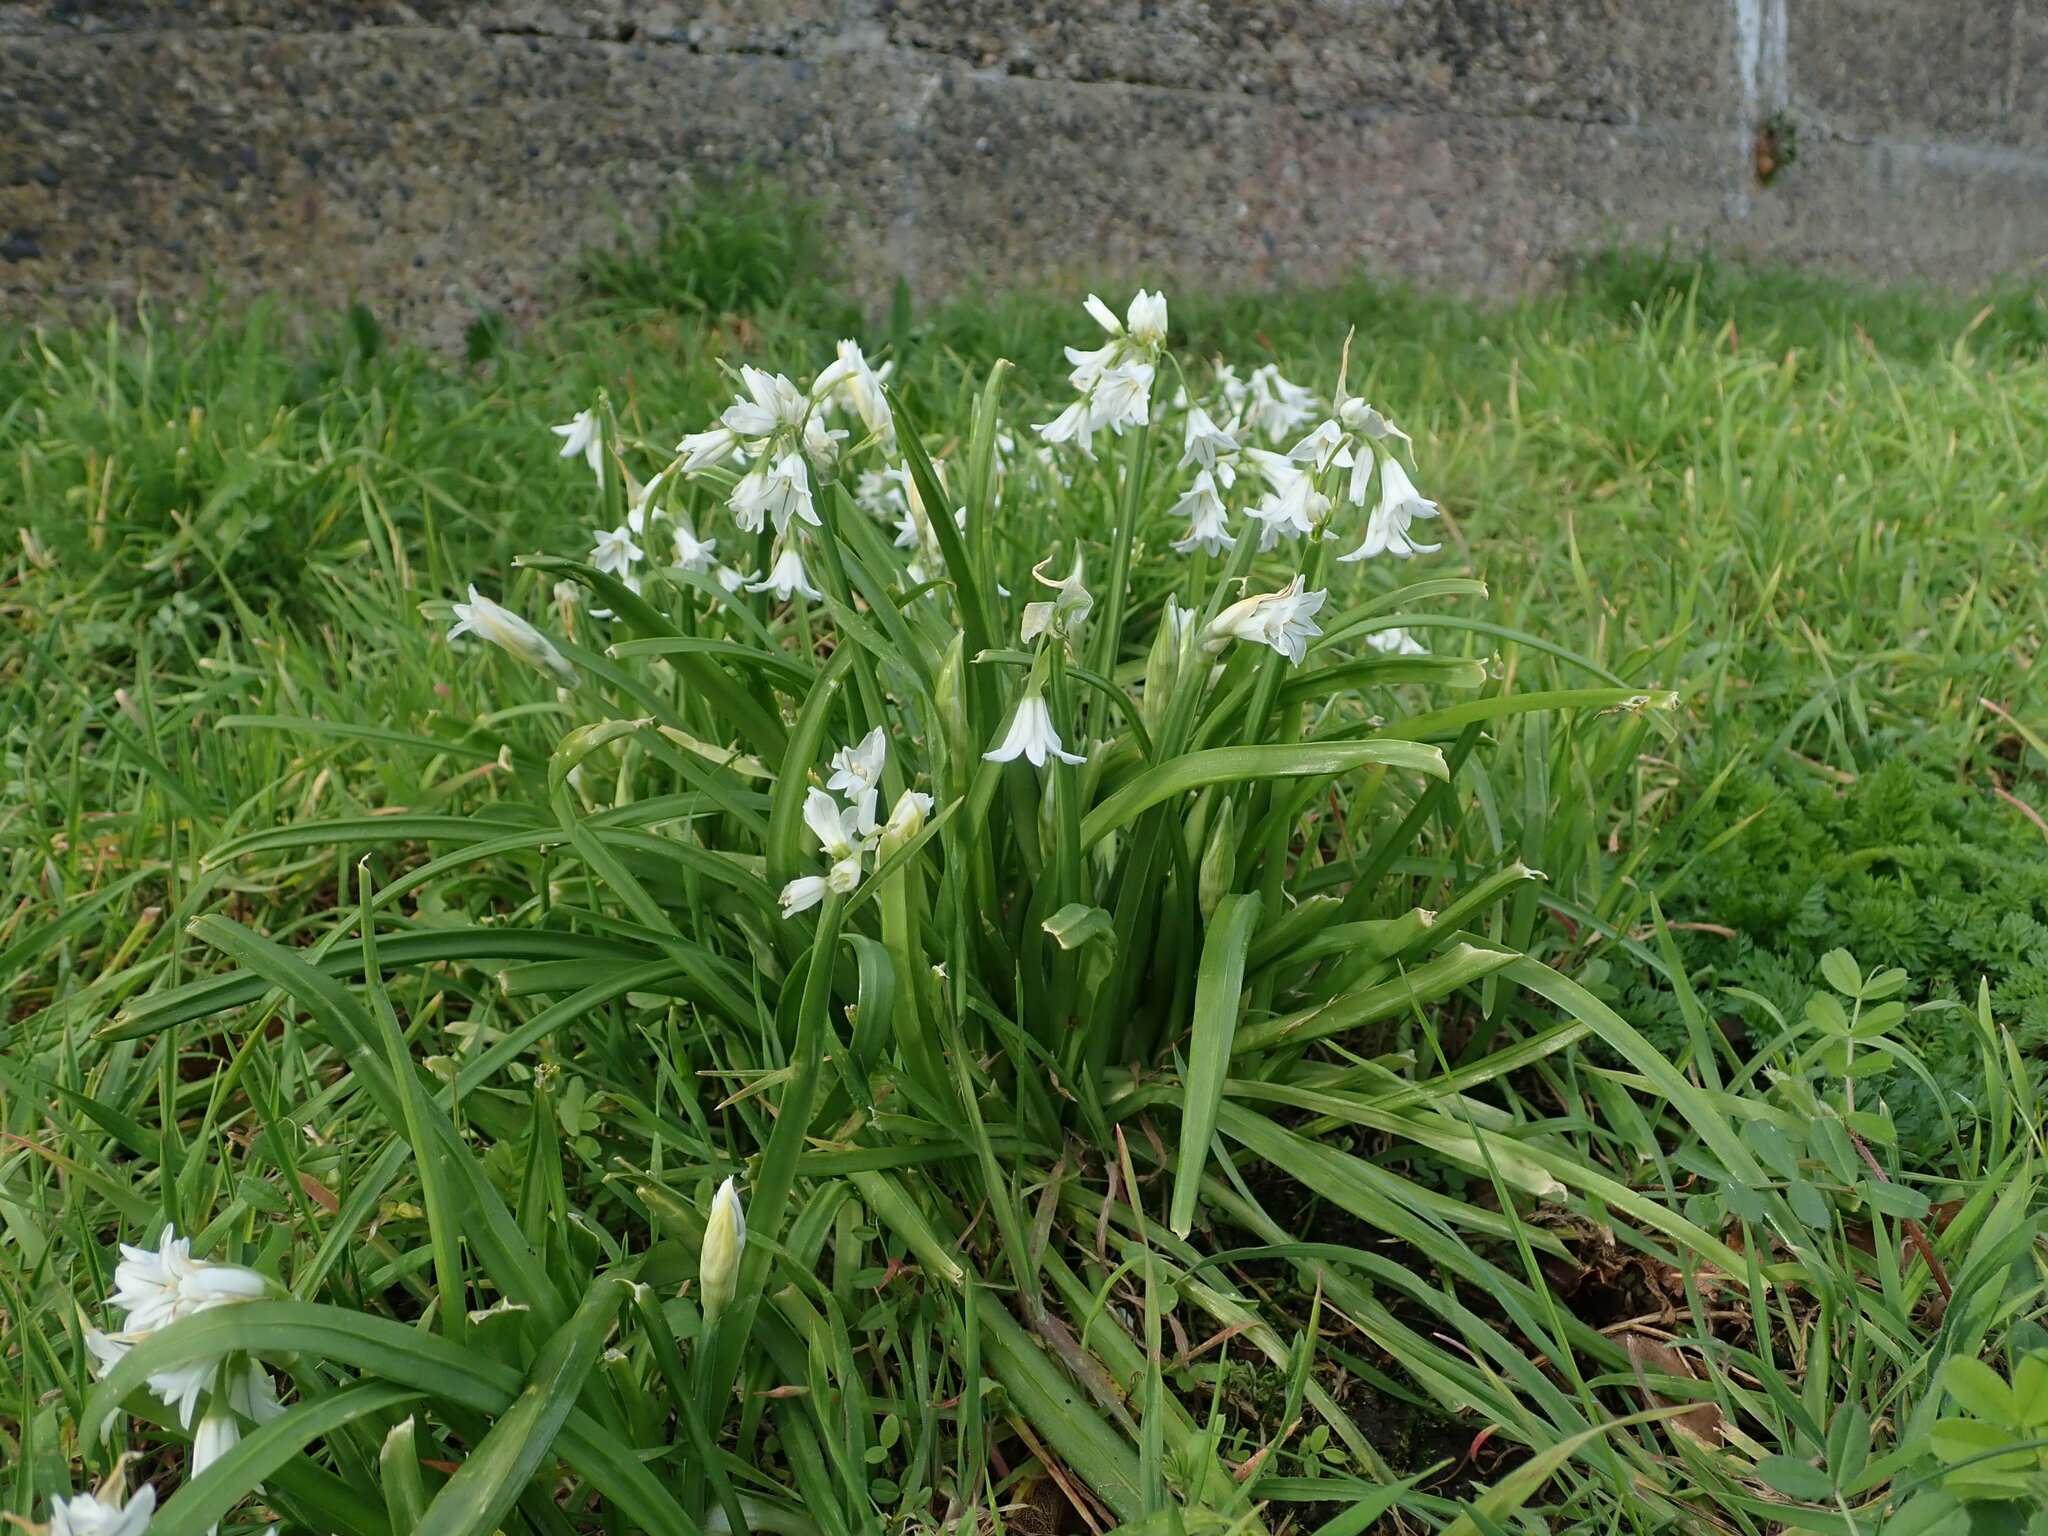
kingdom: Plantae
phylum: Tracheophyta
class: Liliopsida
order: Asparagales
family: Amaryllidaceae
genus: Allium
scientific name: Allium triquetrum
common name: Three-cornered garlic
